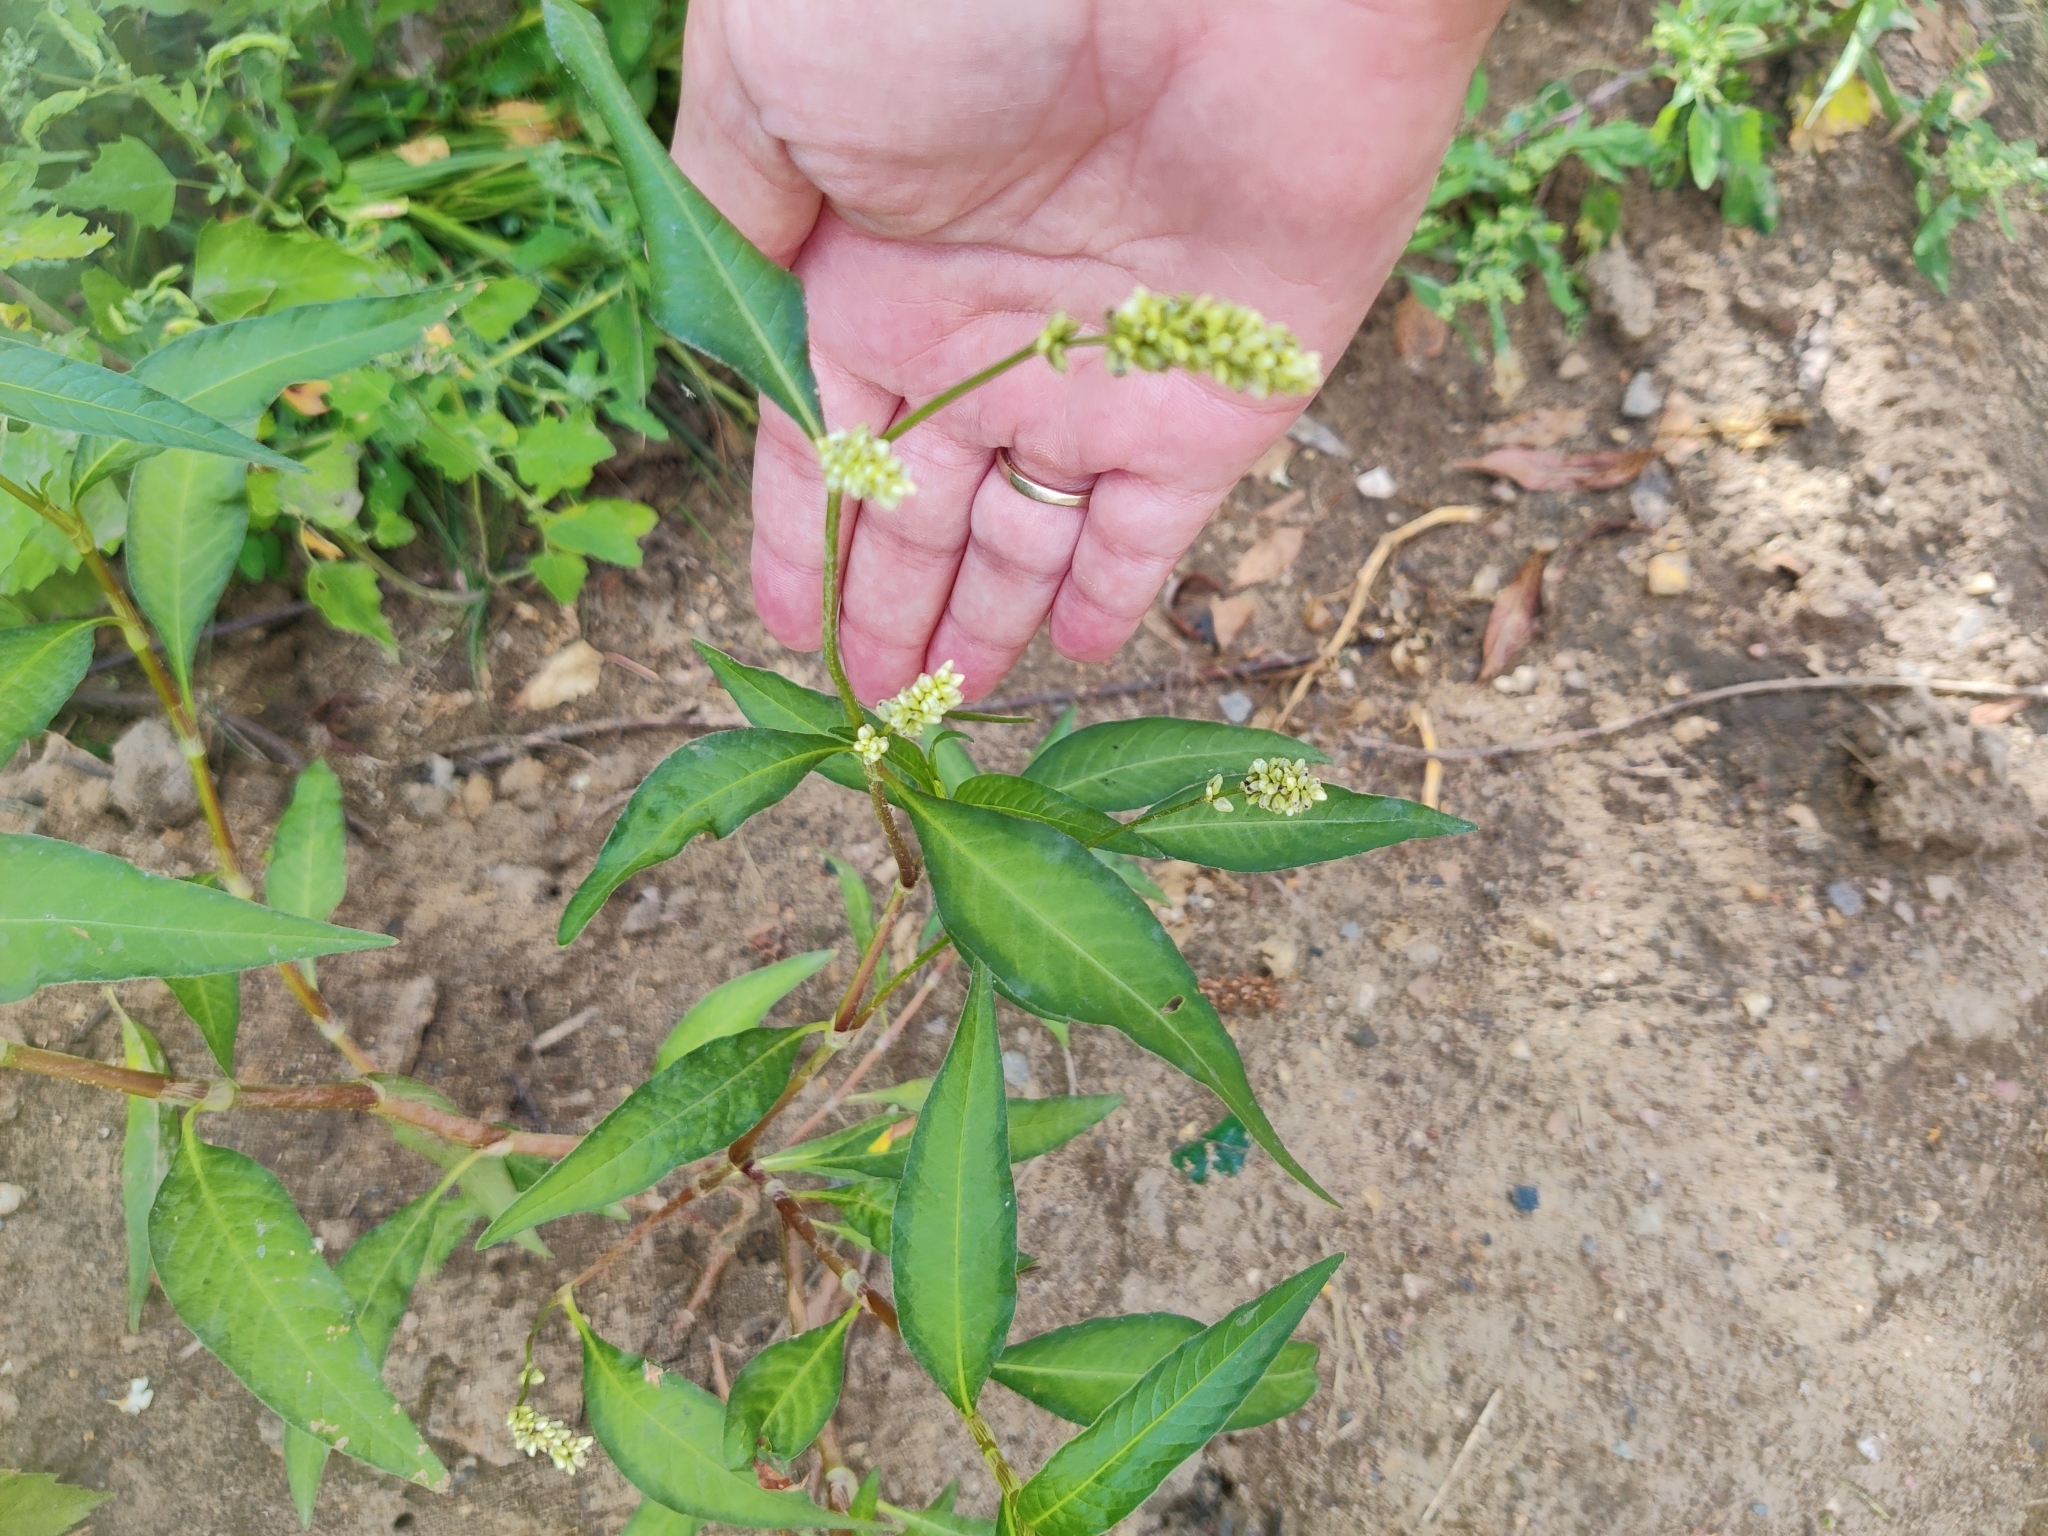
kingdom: Plantae
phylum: Tracheophyta
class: Magnoliopsida
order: Caryophyllales
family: Polygonaceae
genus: Persicaria
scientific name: Persicaria lapathifolia
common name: Curlytop knotweed
